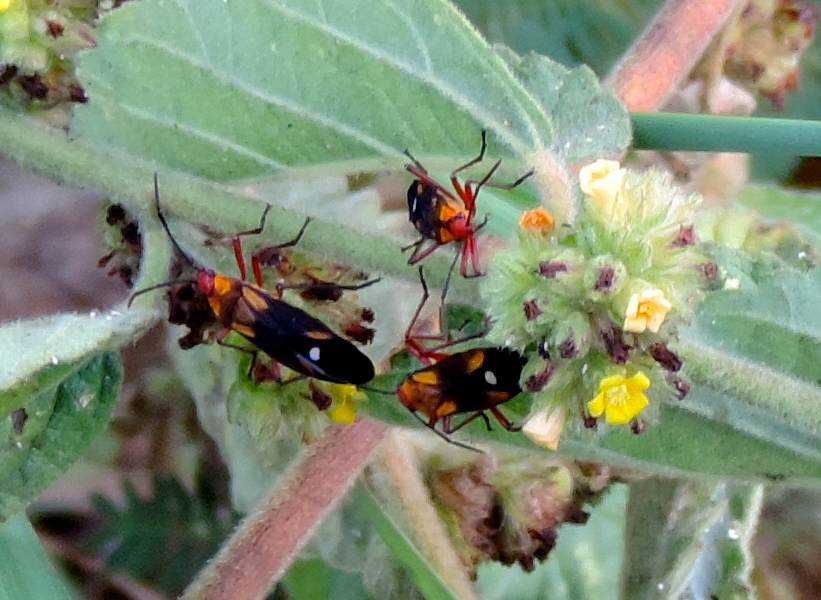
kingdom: Animalia
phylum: Arthropoda
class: Insecta
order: Hemiptera
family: Lygaeidae
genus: Oncopeltus
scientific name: Oncopeltus sexmaculatus
